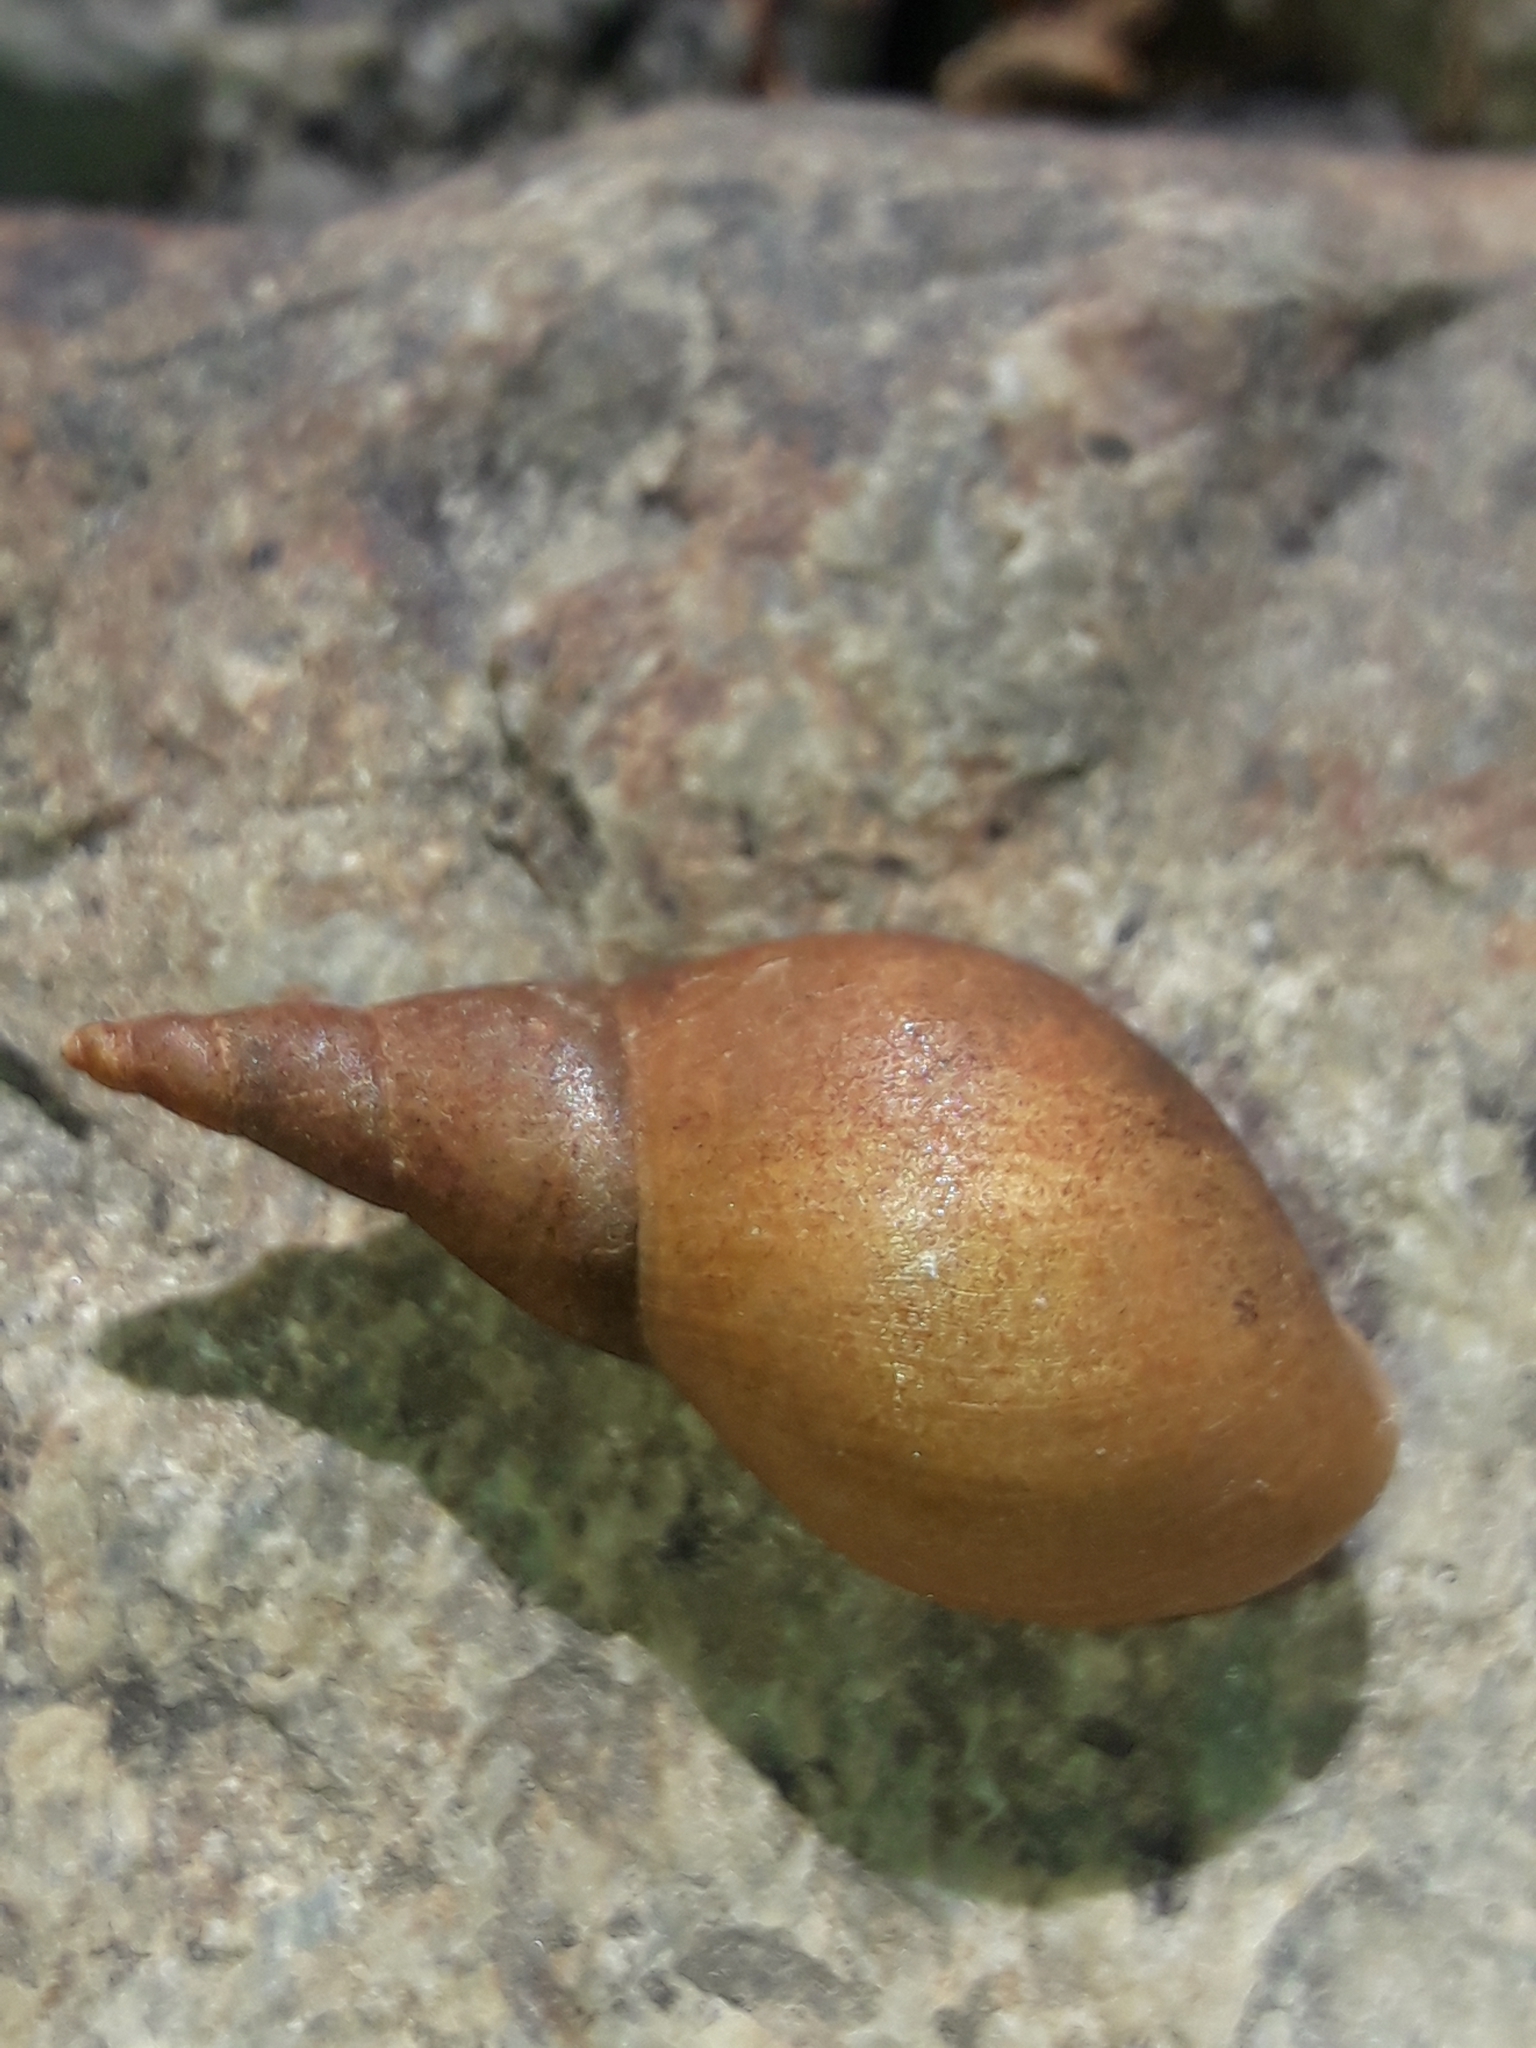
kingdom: Animalia
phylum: Mollusca
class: Gastropoda
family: Lymnaeidae
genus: Lymnaea
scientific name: Lymnaea stagnalis
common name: Great pond snail
